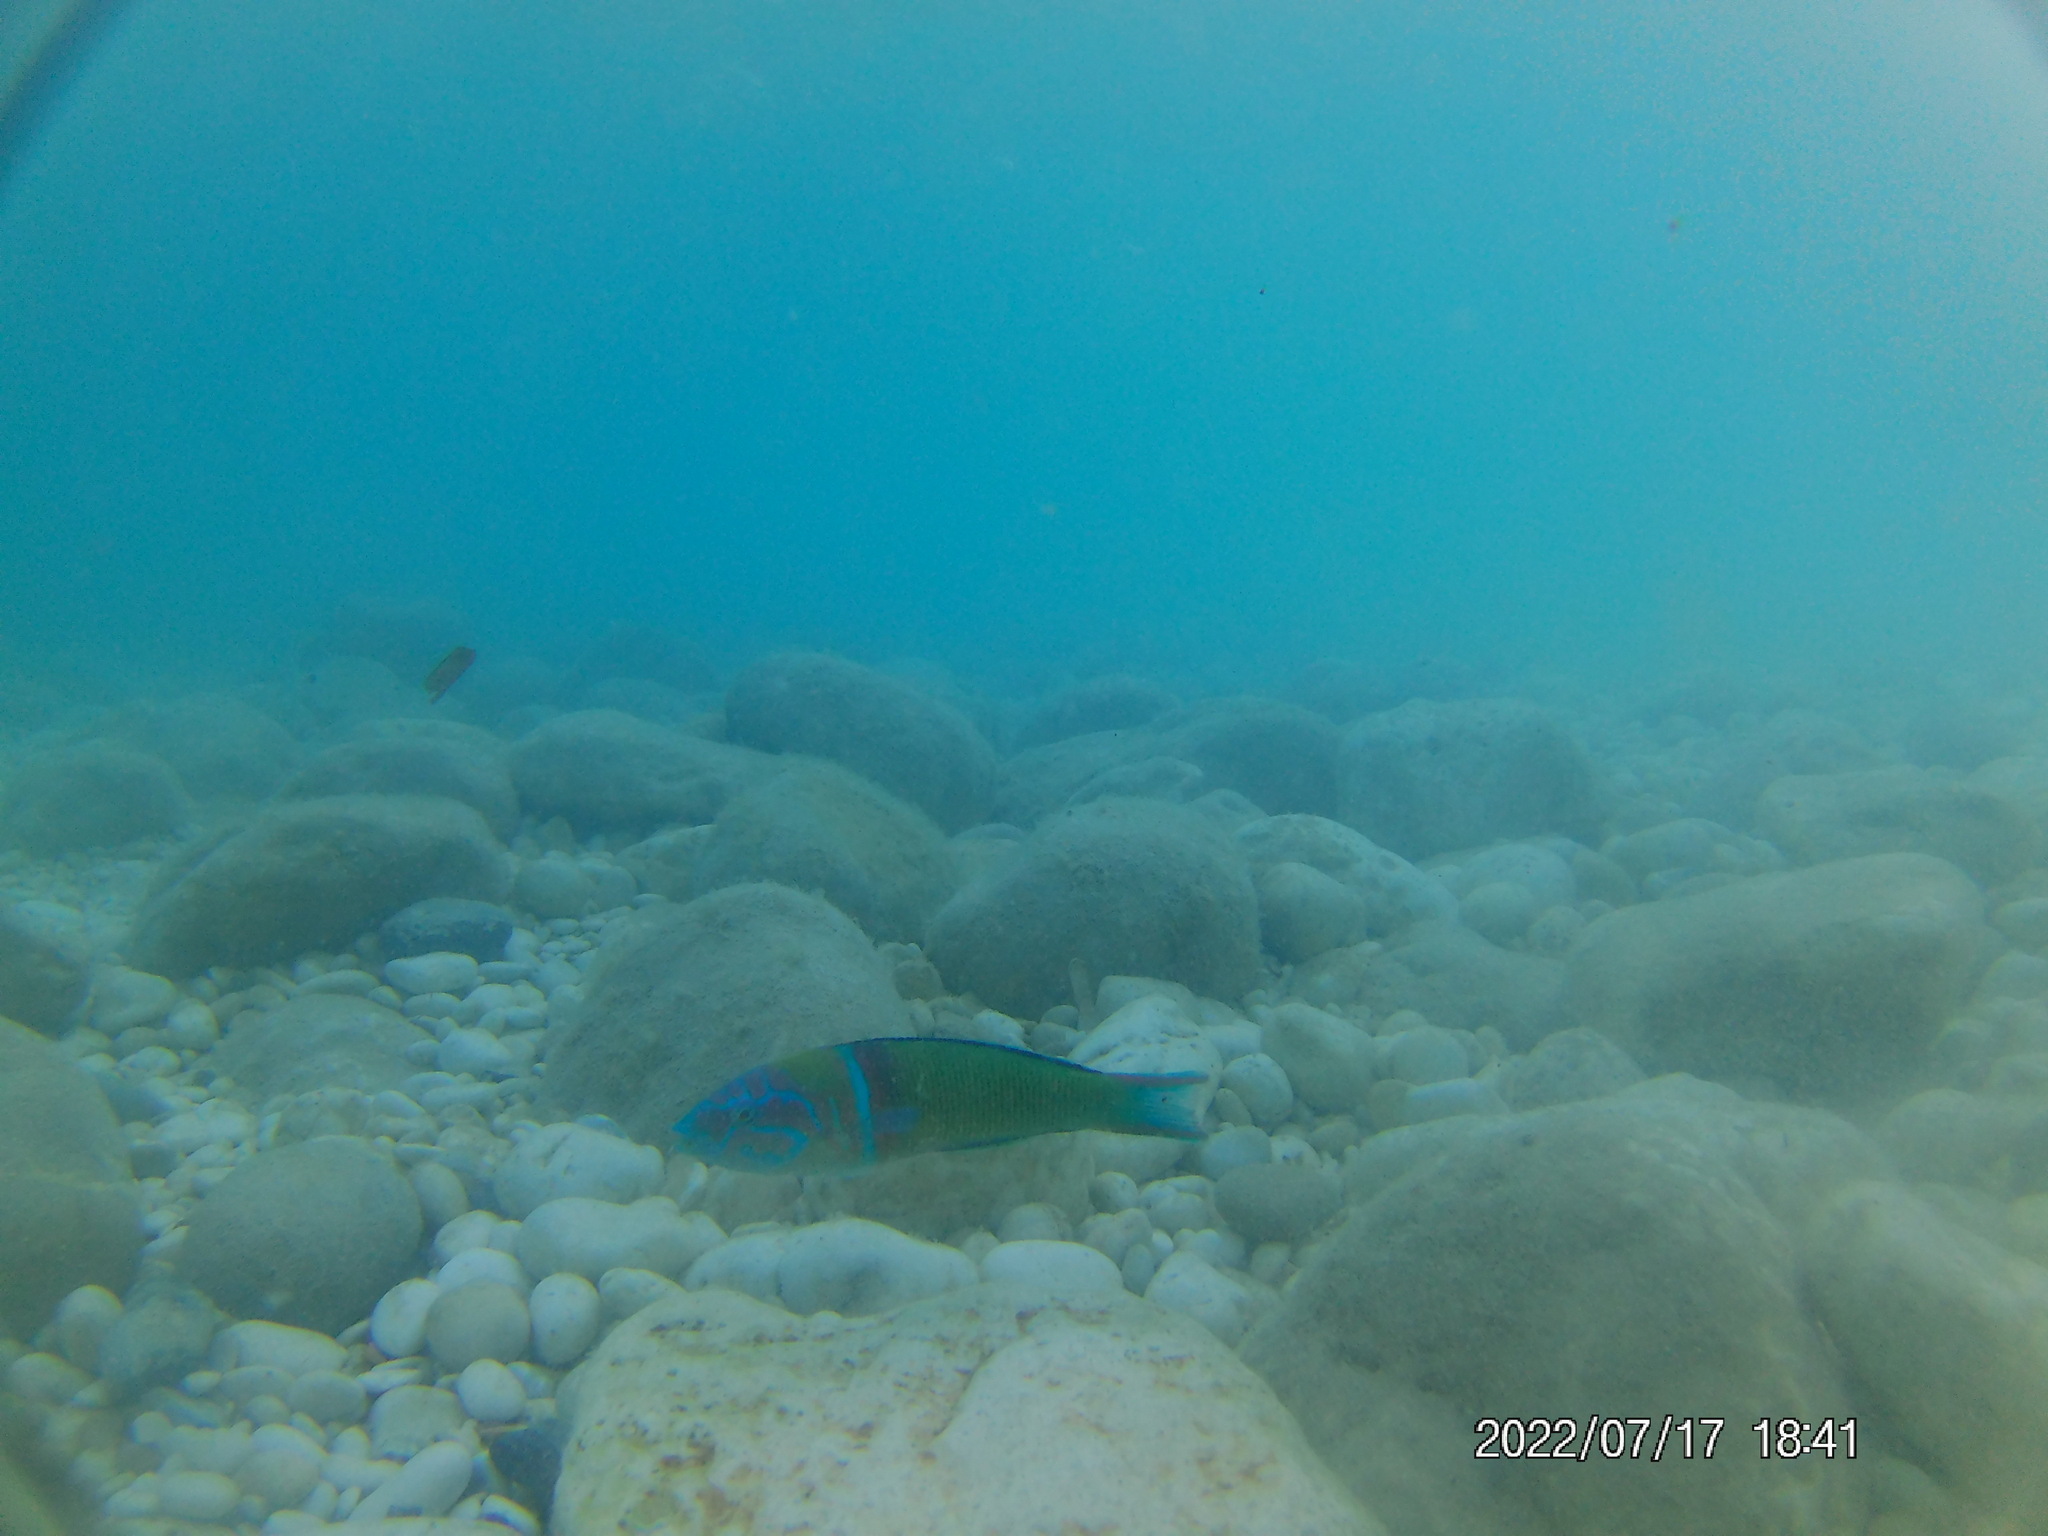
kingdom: Animalia
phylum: Chordata
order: Perciformes
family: Labridae
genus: Thalassoma
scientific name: Thalassoma pavo
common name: Ornate wrasse
